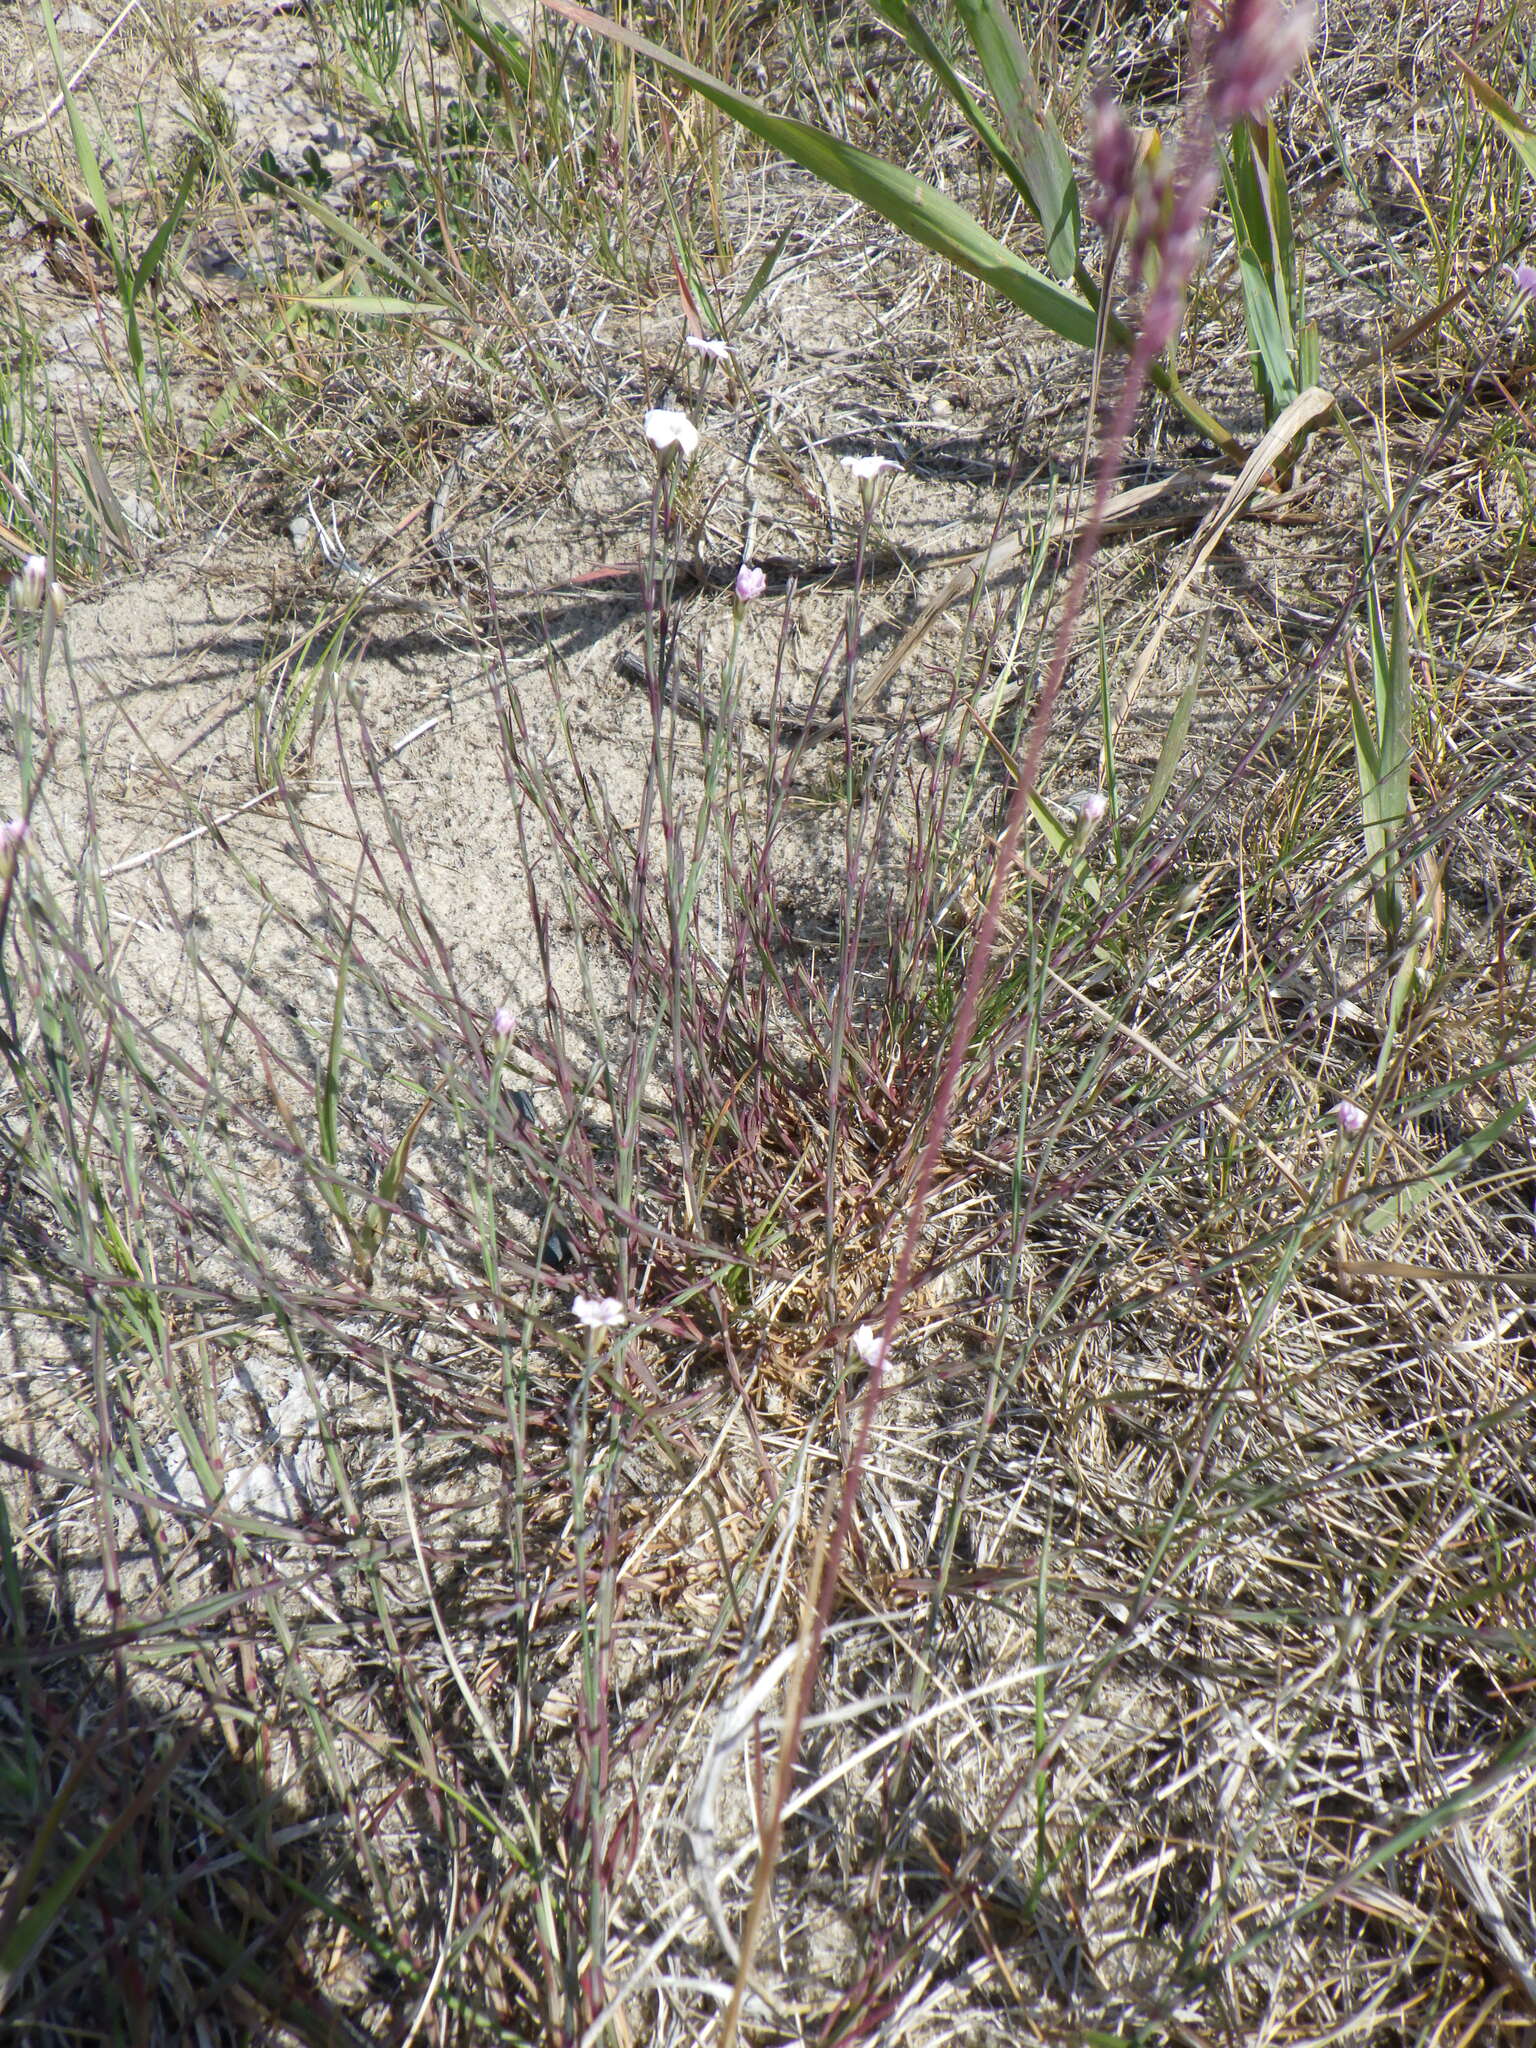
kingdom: Plantae
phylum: Tracheophyta
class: Magnoliopsida
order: Caryophyllales
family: Caryophyllaceae
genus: Petrorhagia
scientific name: Petrorhagia saxifraga
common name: Tunicflower
